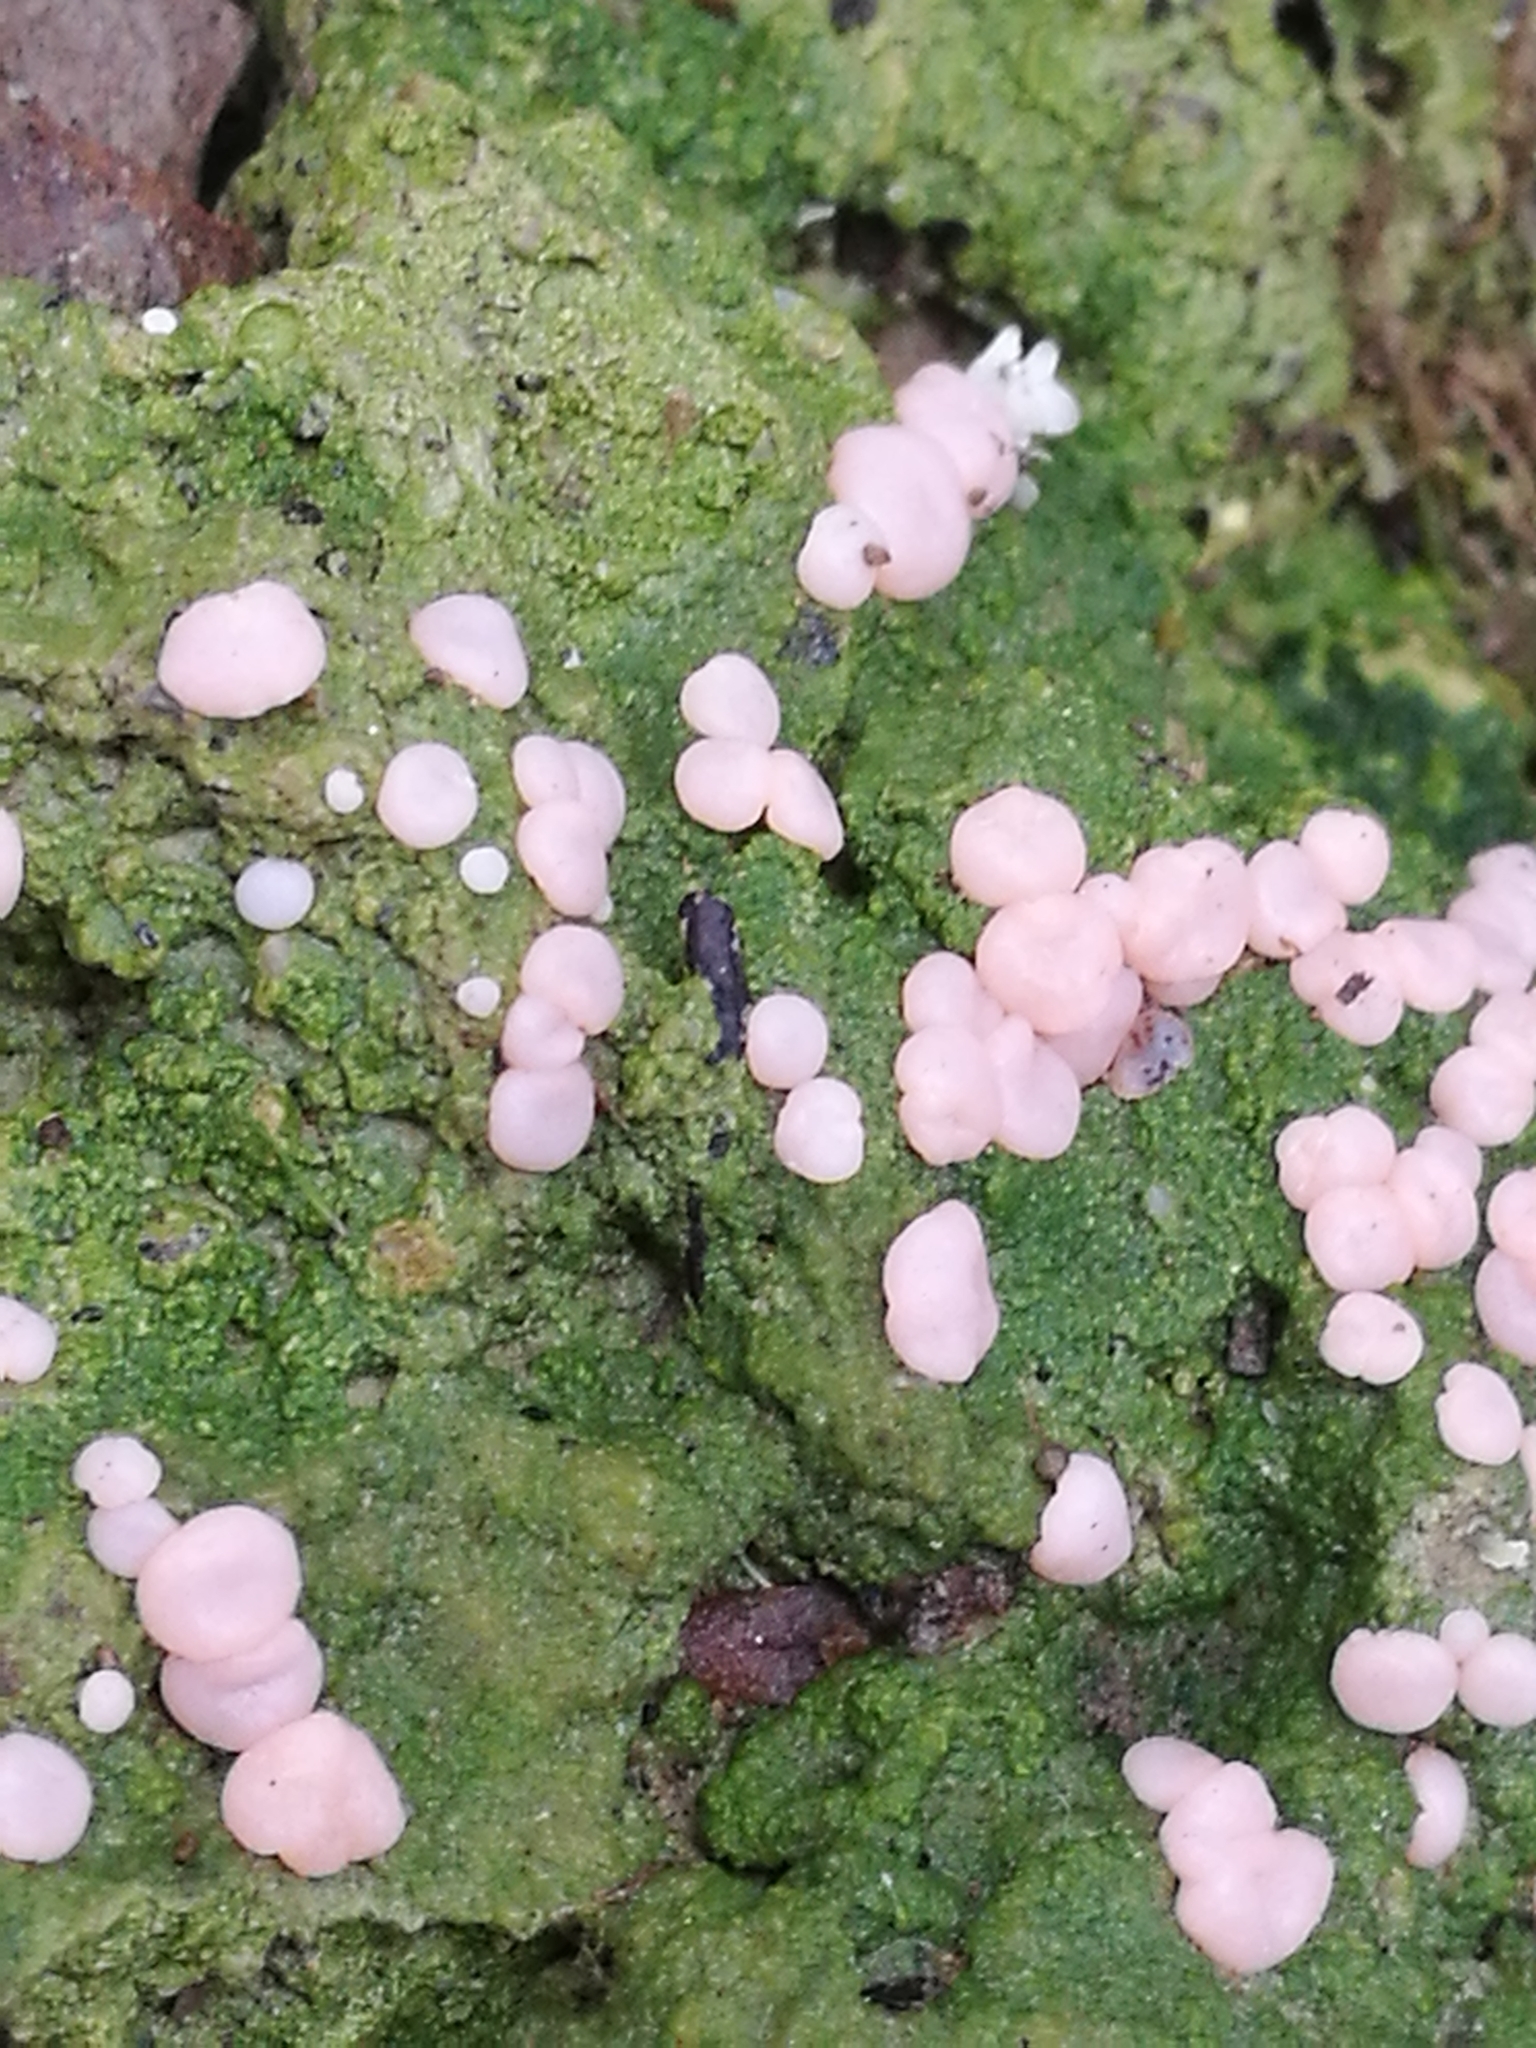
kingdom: Fungi
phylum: Ascomycota
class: Lecanoromycetes
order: Pertusariales
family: Icmadophilaceae
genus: Dibaeis
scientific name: Dibaeis absoluta
